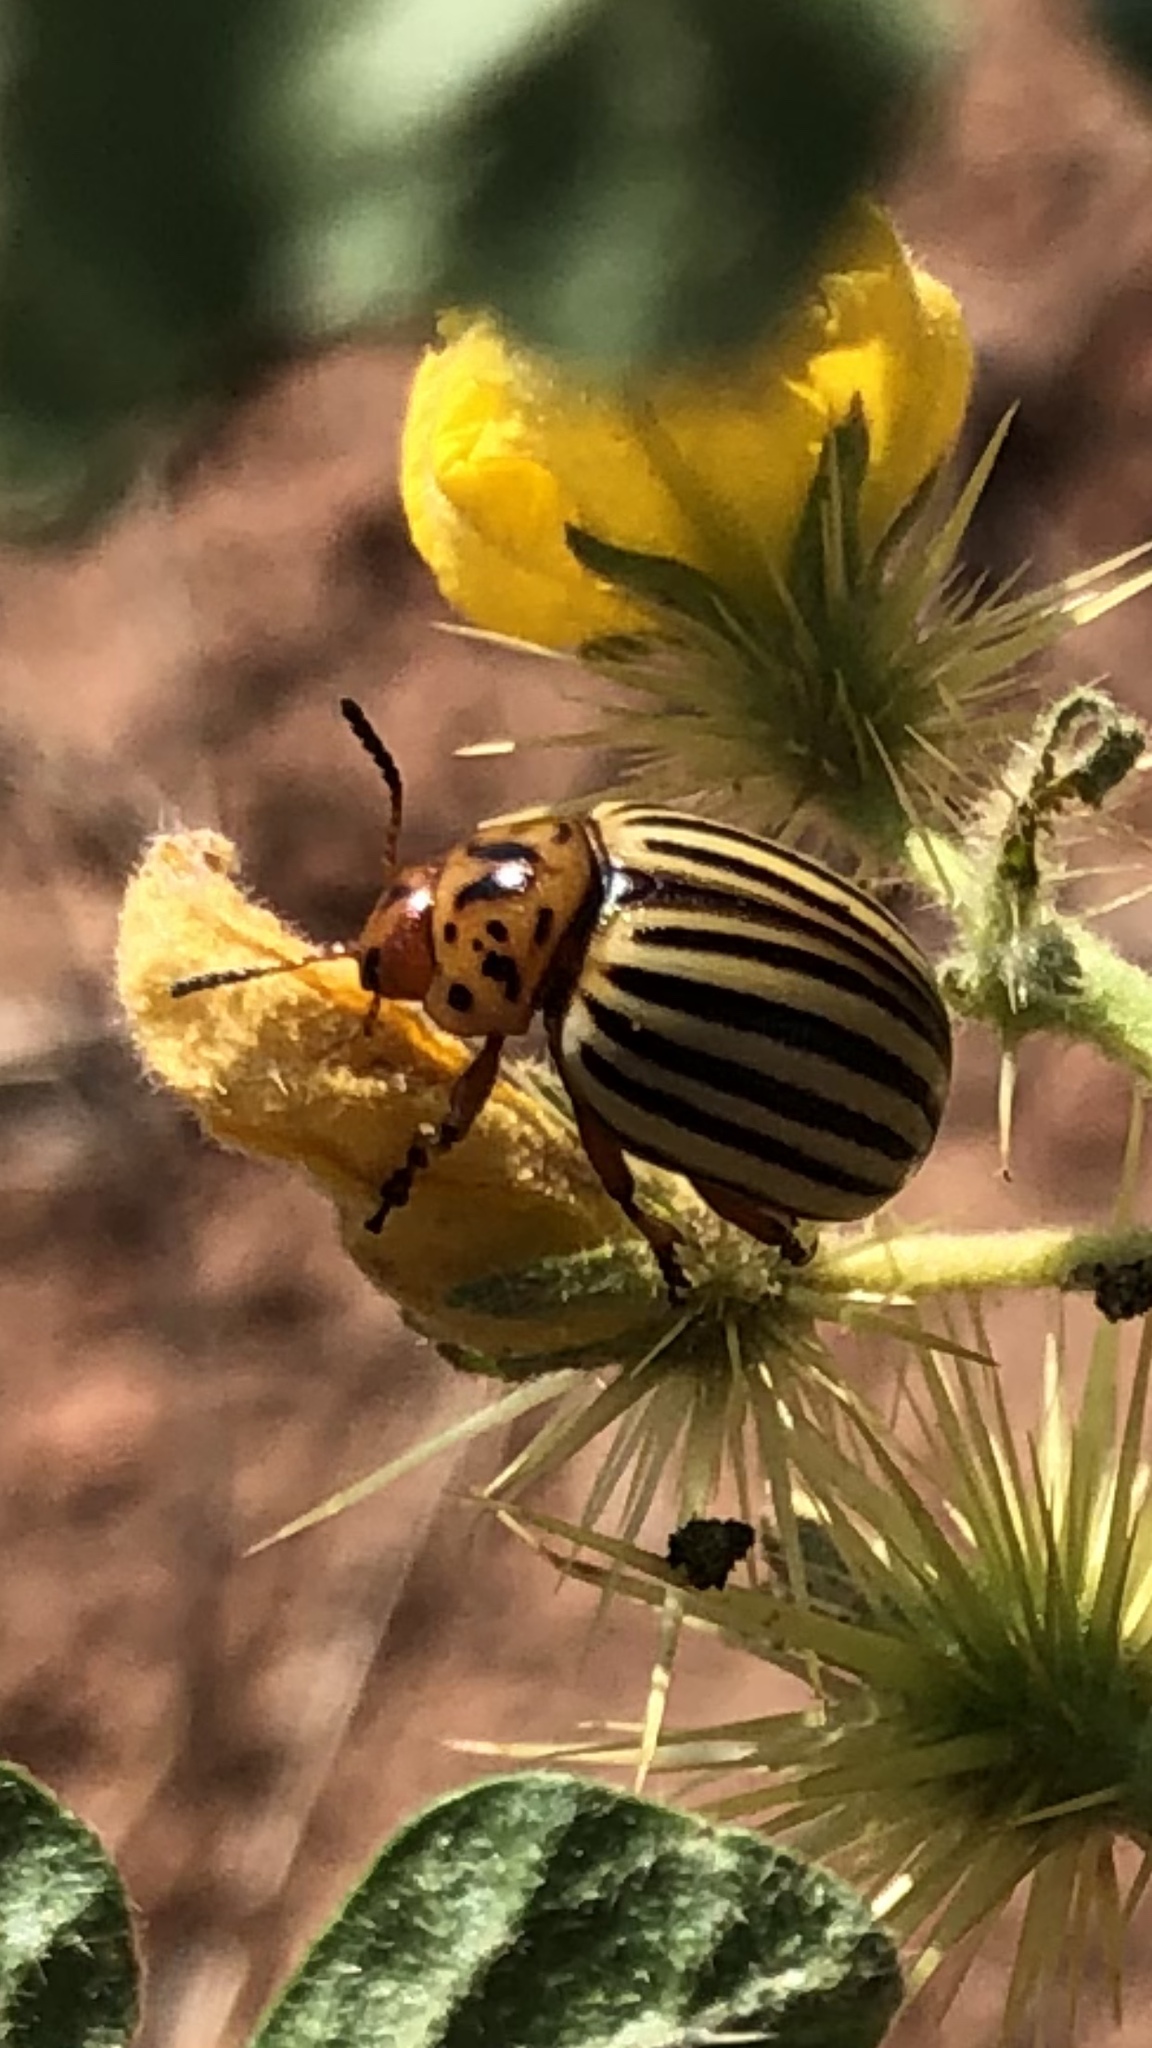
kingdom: Animalia
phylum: Arthropoda
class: Insecta
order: Coleoptera
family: Chrysomelidae
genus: Leptinotarsa
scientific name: Leptinotarsa decemlineata
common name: Colorado potato beetle
